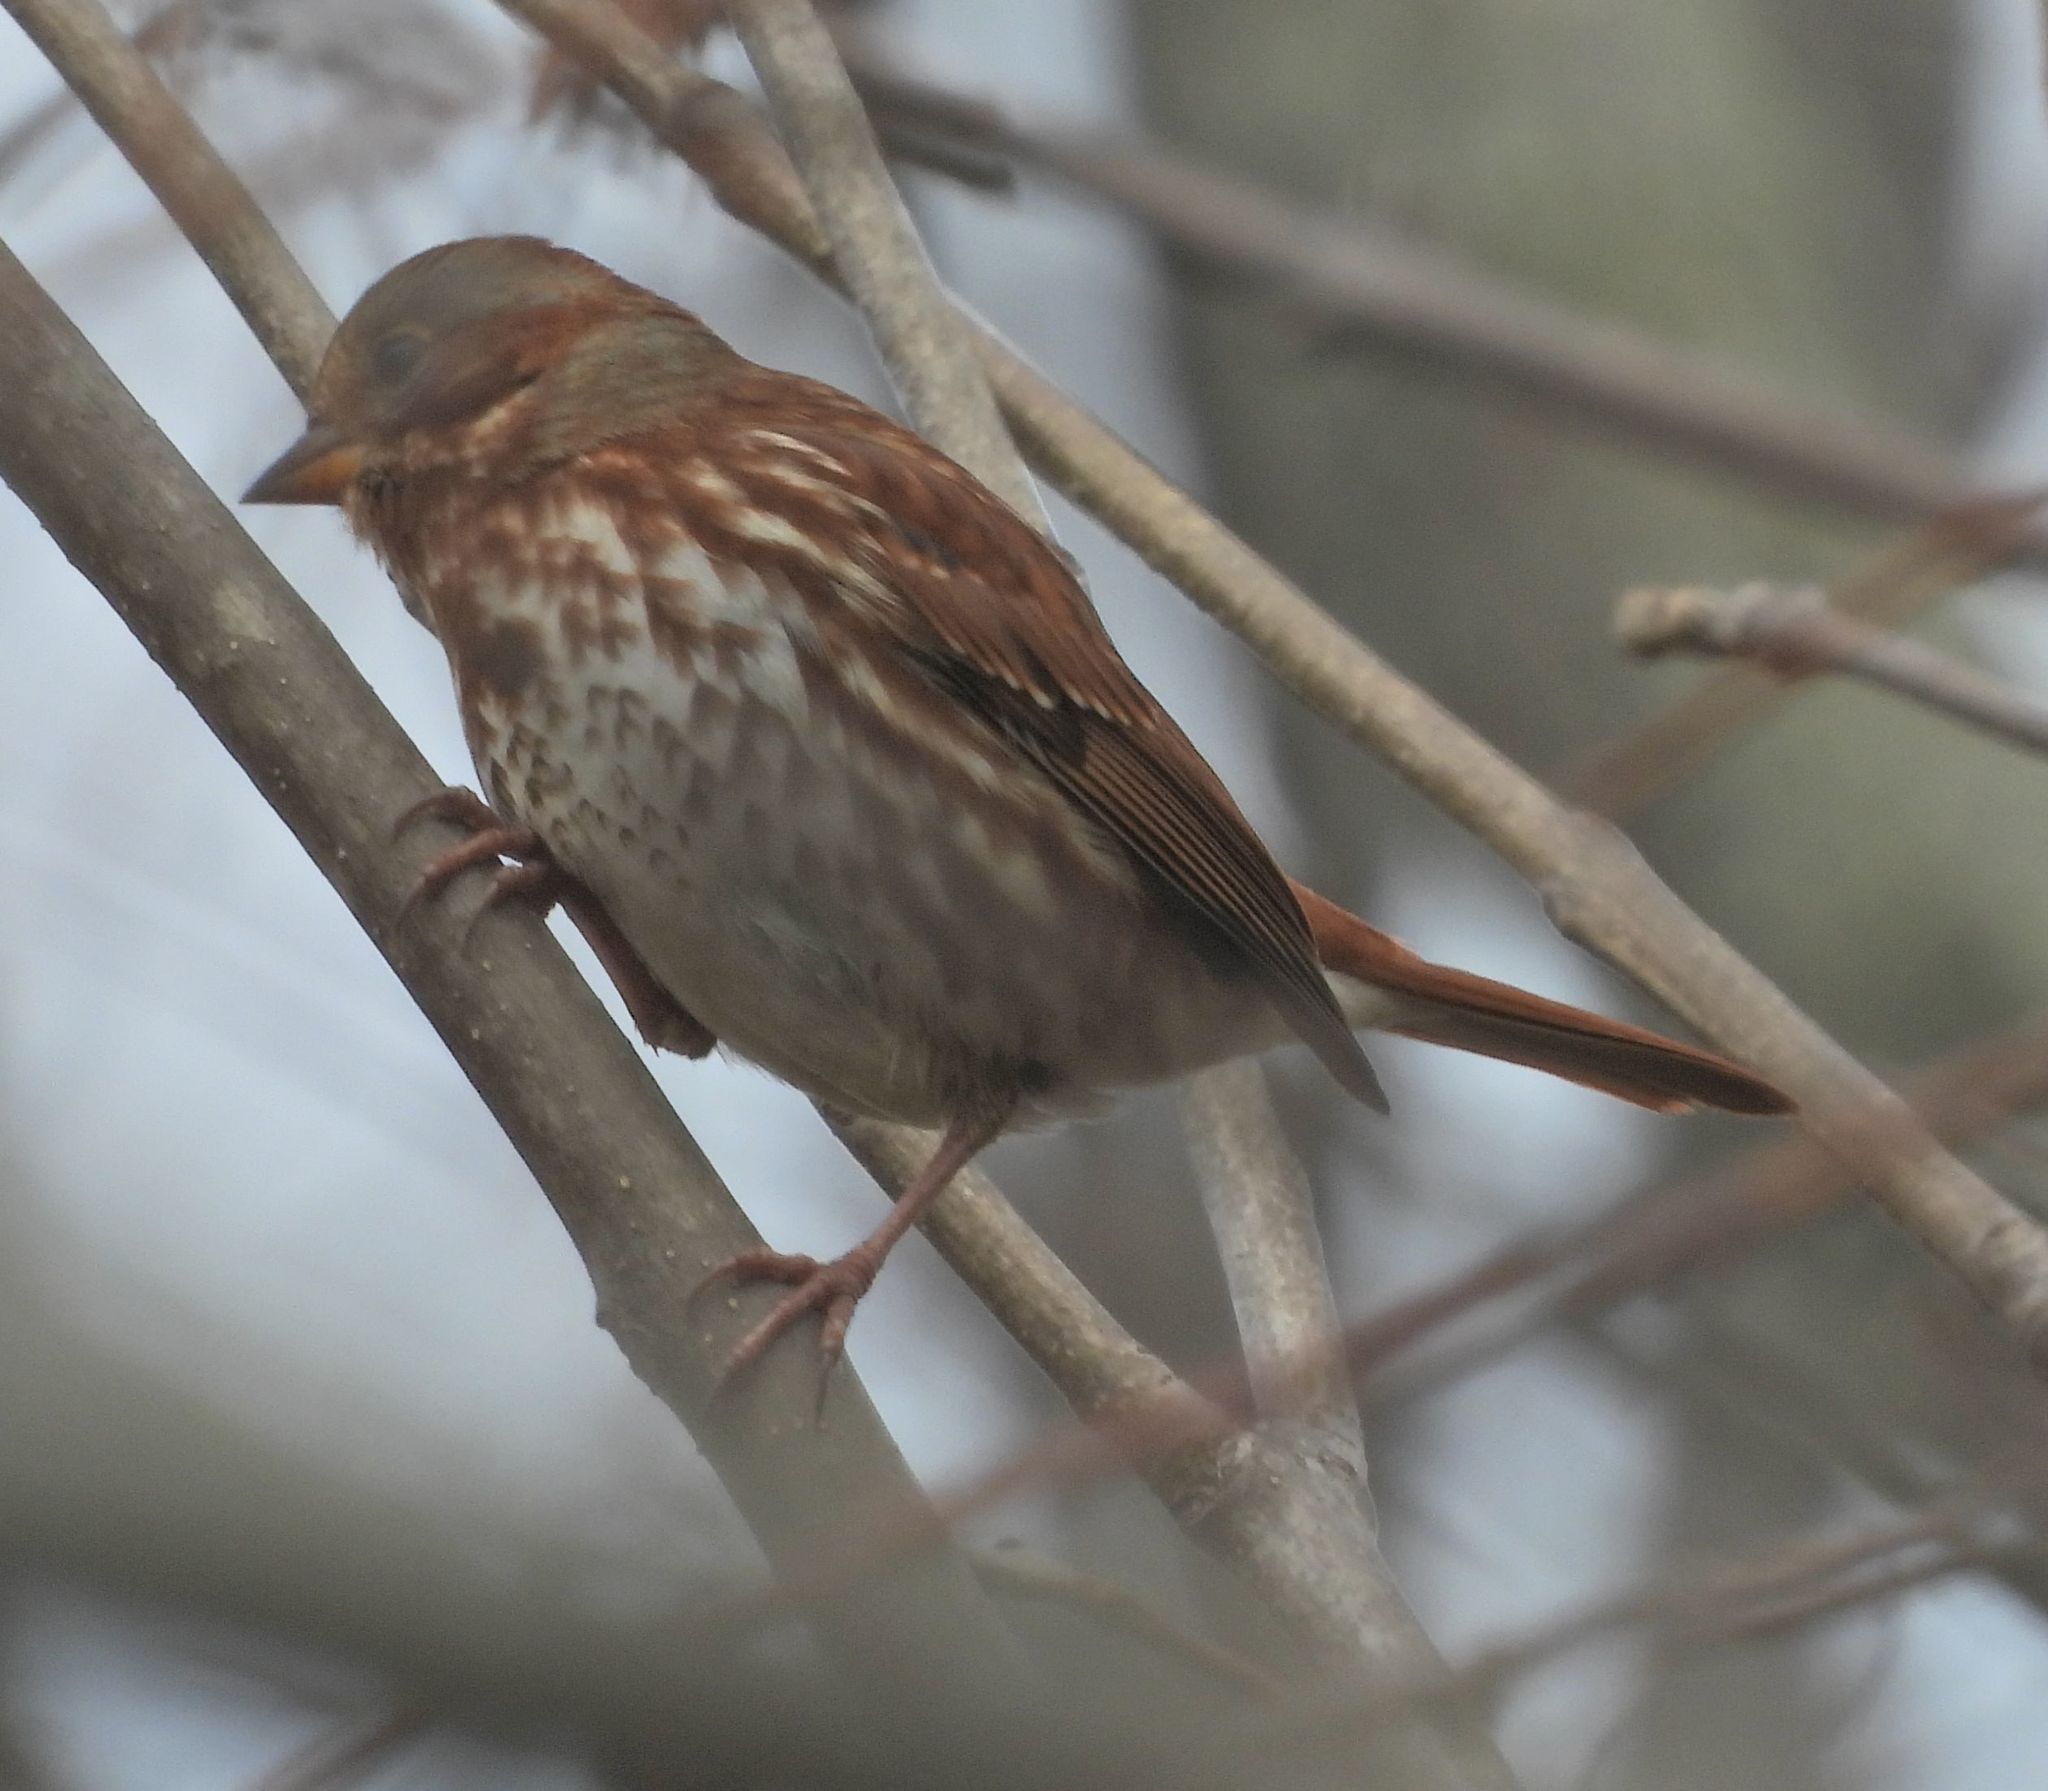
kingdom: Animalia
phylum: Chordata
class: Aves
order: Passeriformes
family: Passerellidae
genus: Passerella
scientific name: Passerella iliaca
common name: Fox sparrow
